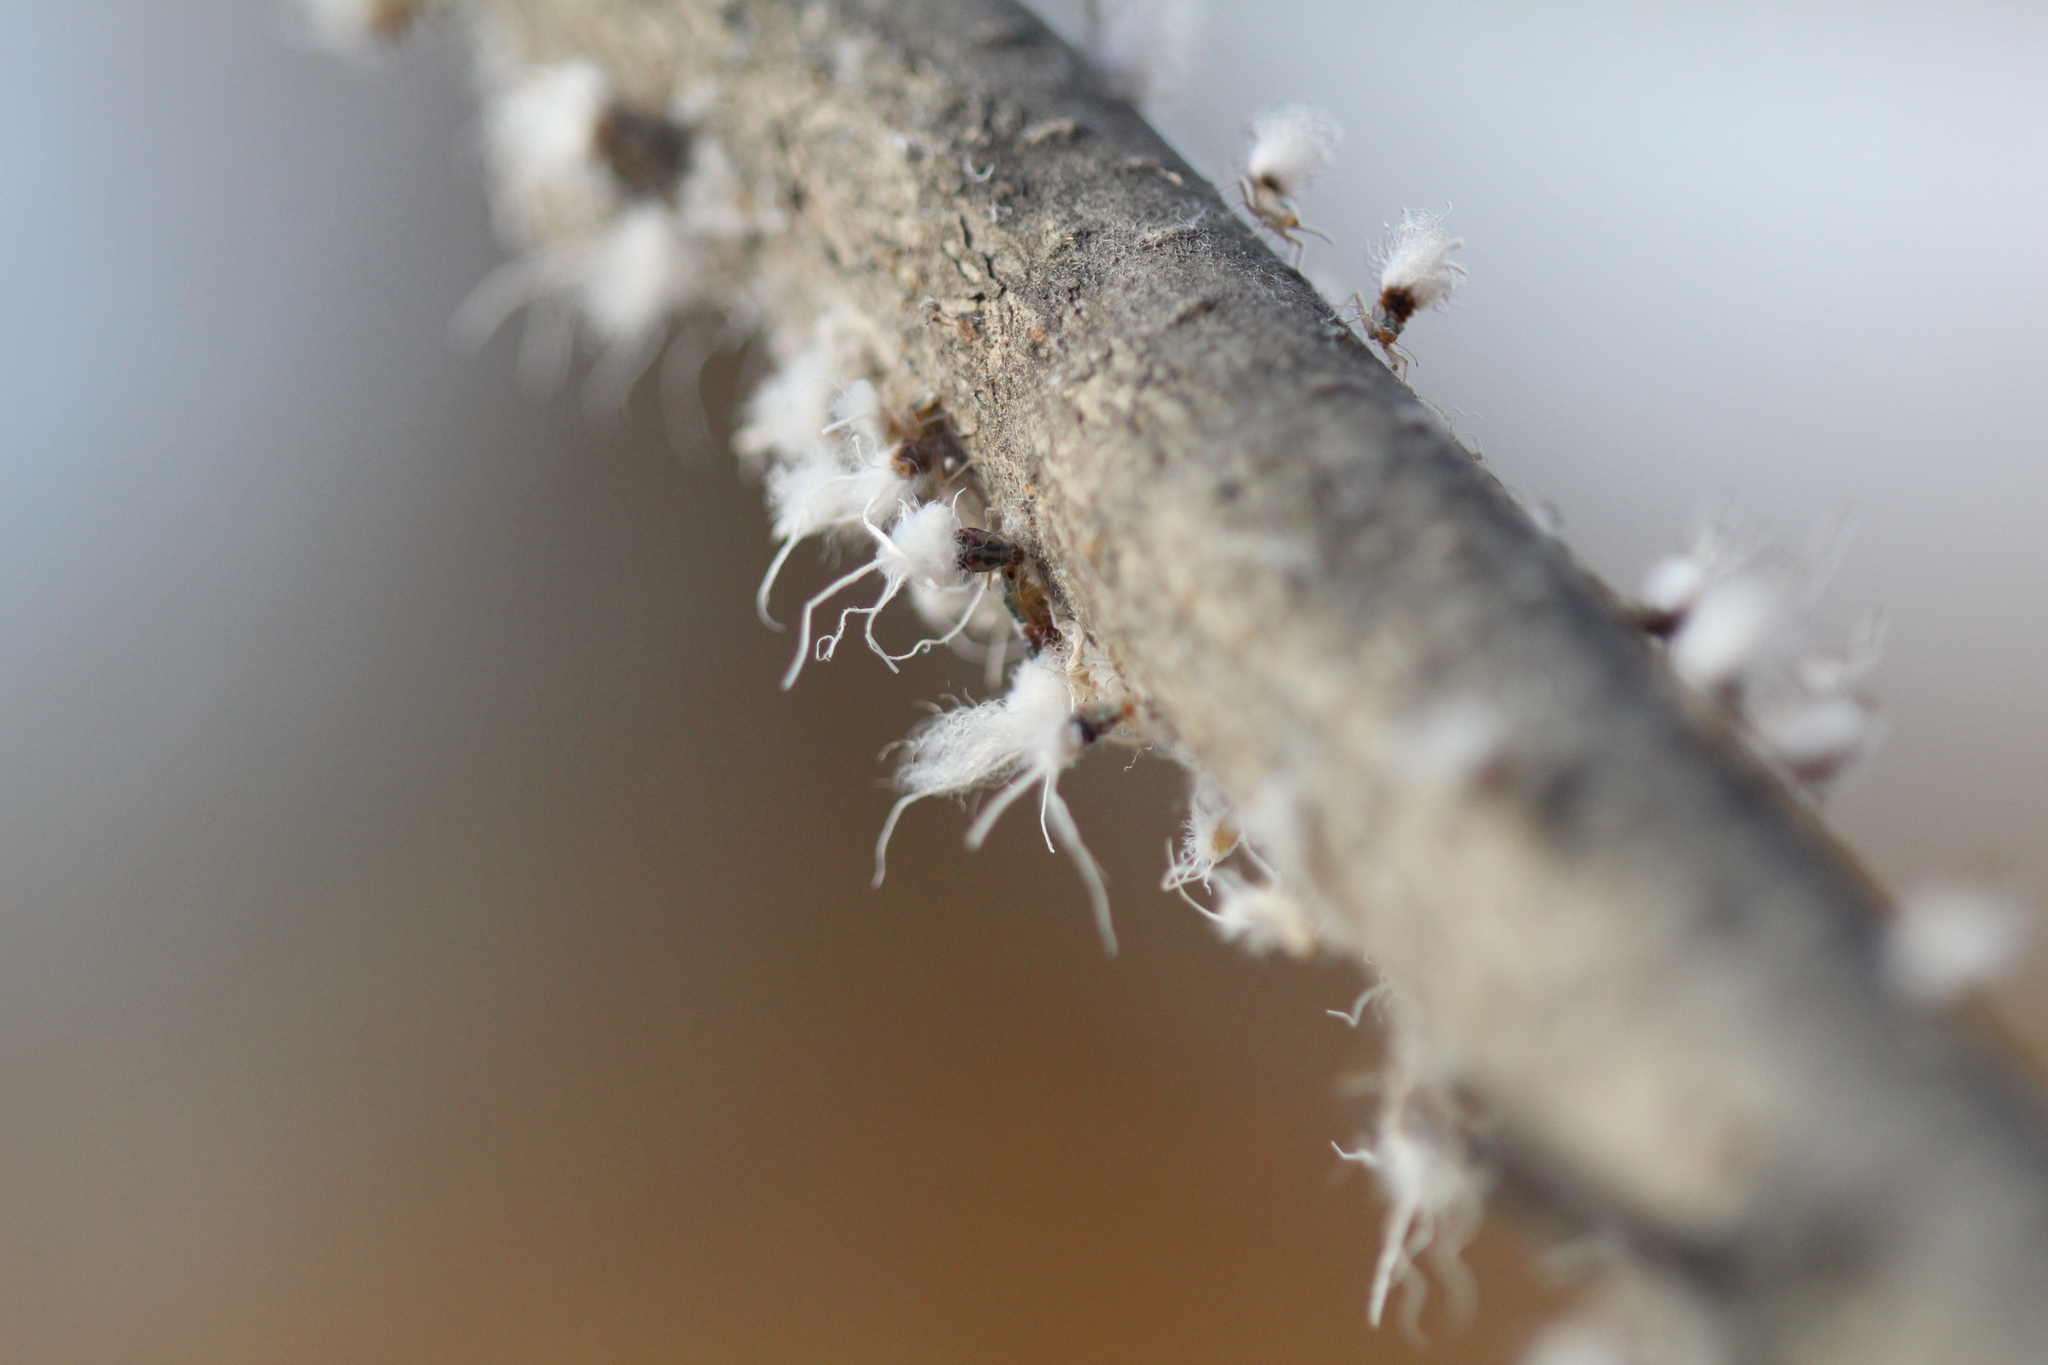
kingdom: Animalia
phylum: Arthropoda
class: Insecta
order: Hemiptera
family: Aphididae
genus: Grylloprociphilus
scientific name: Grylloprociphilus imbricator
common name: Beech blight aphid
